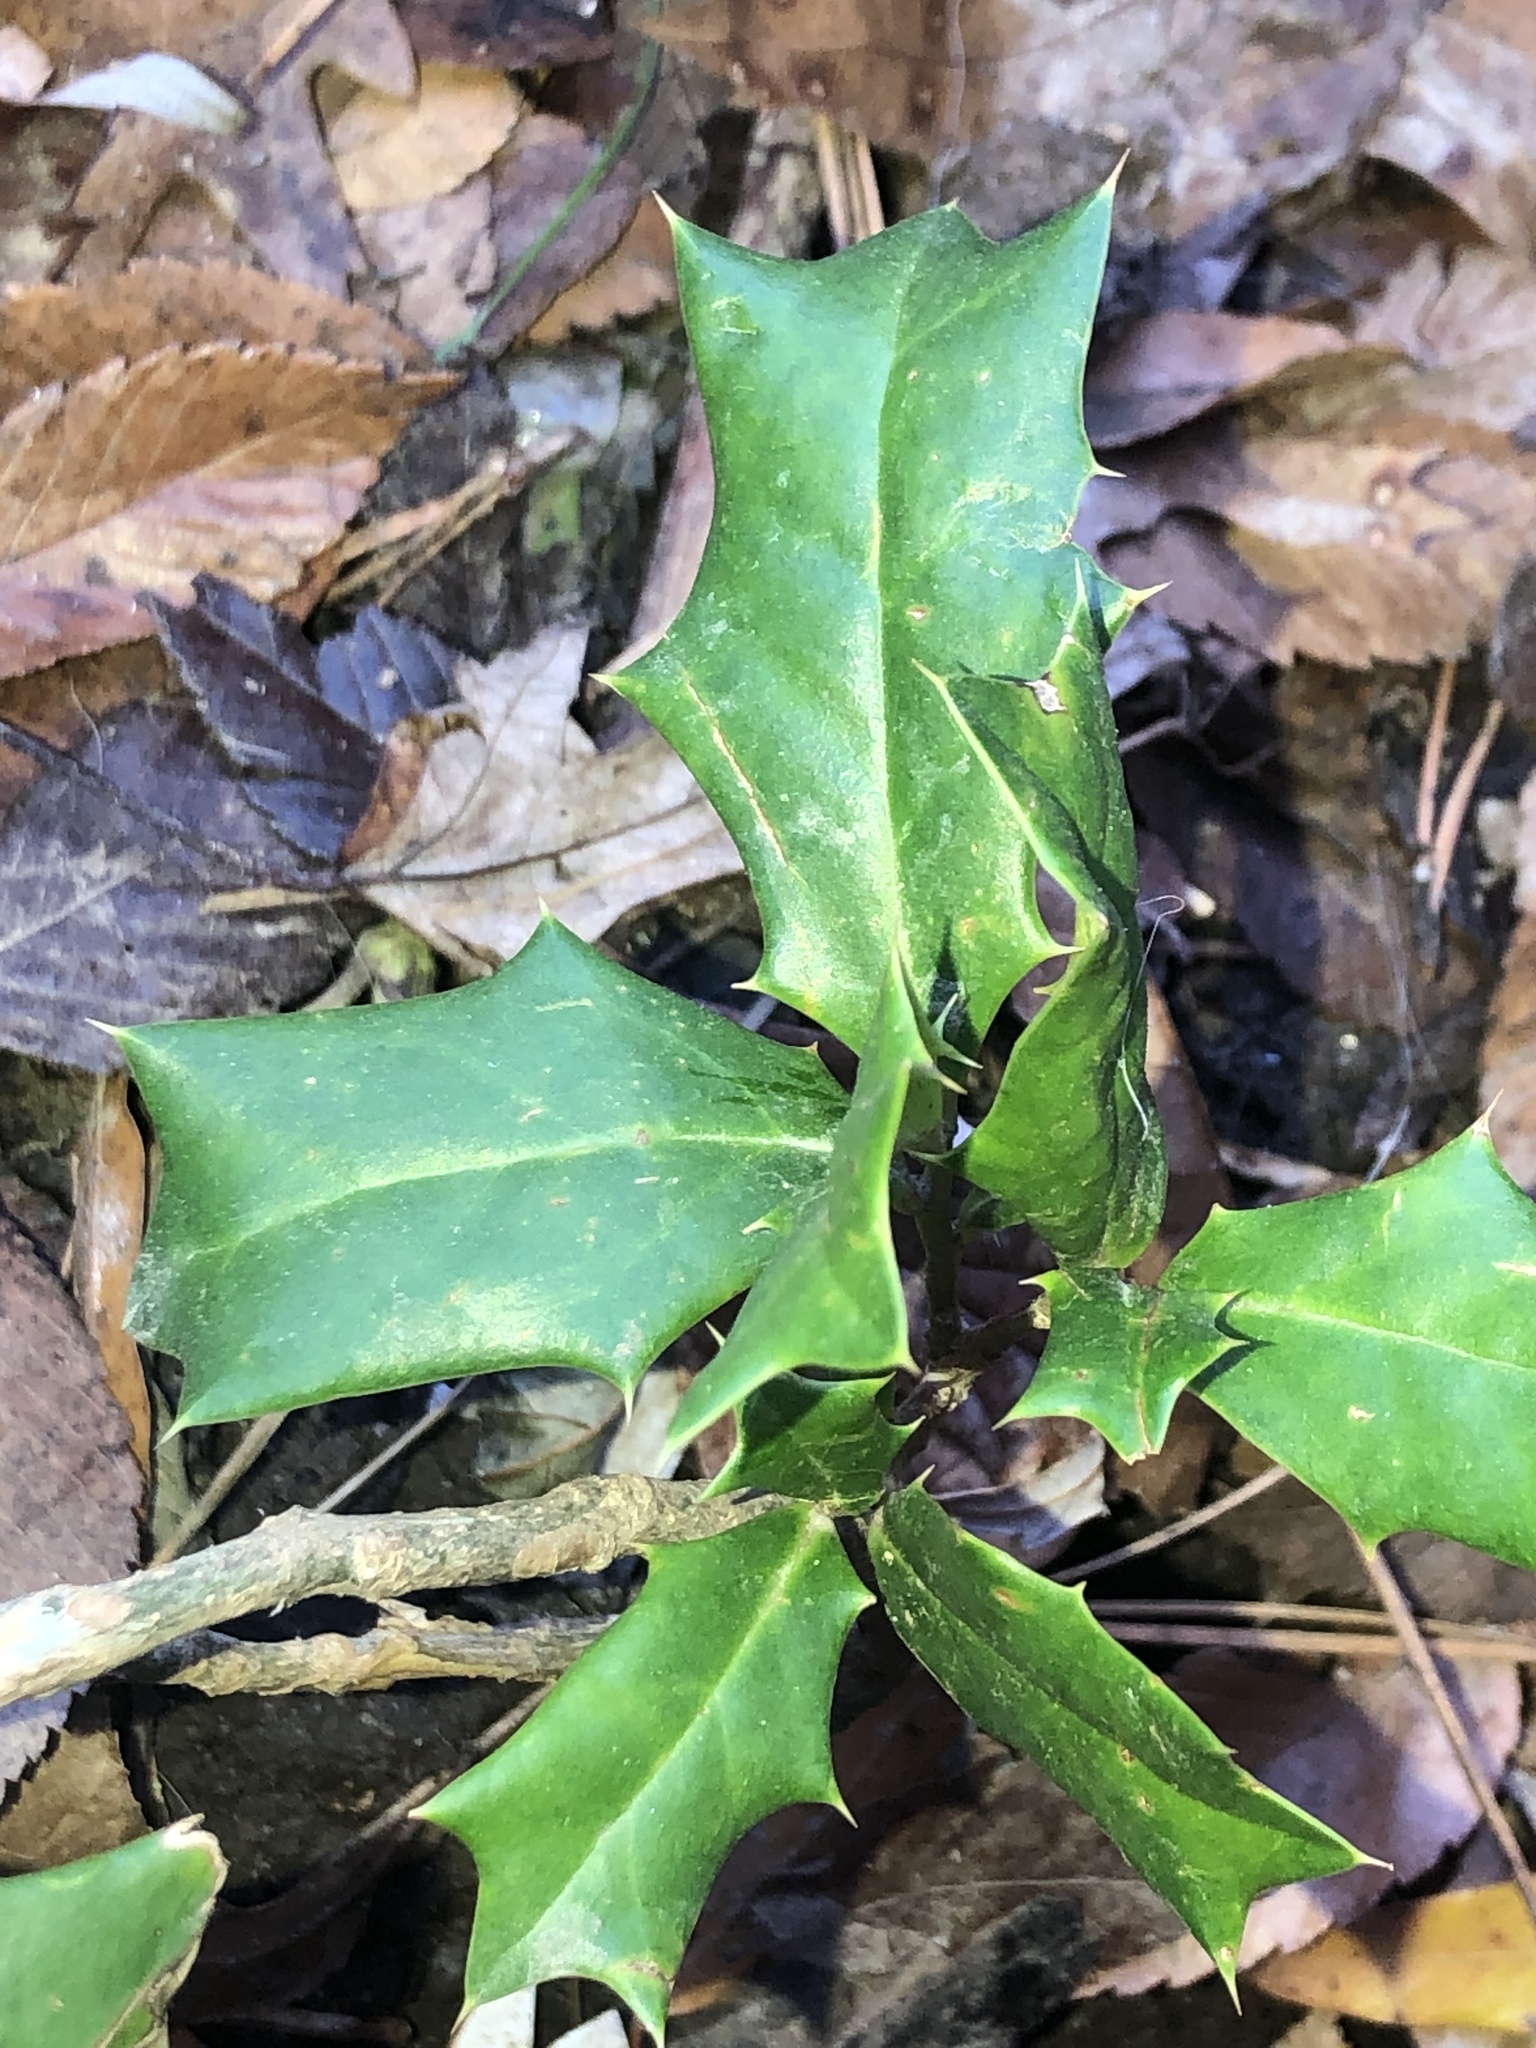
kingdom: Plantae
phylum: Tracheophyta
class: Magnoliopsida
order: Aquifoliales
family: Aquifoliaceae
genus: Ilex
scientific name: Ilex cornuta
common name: Chinese holly
